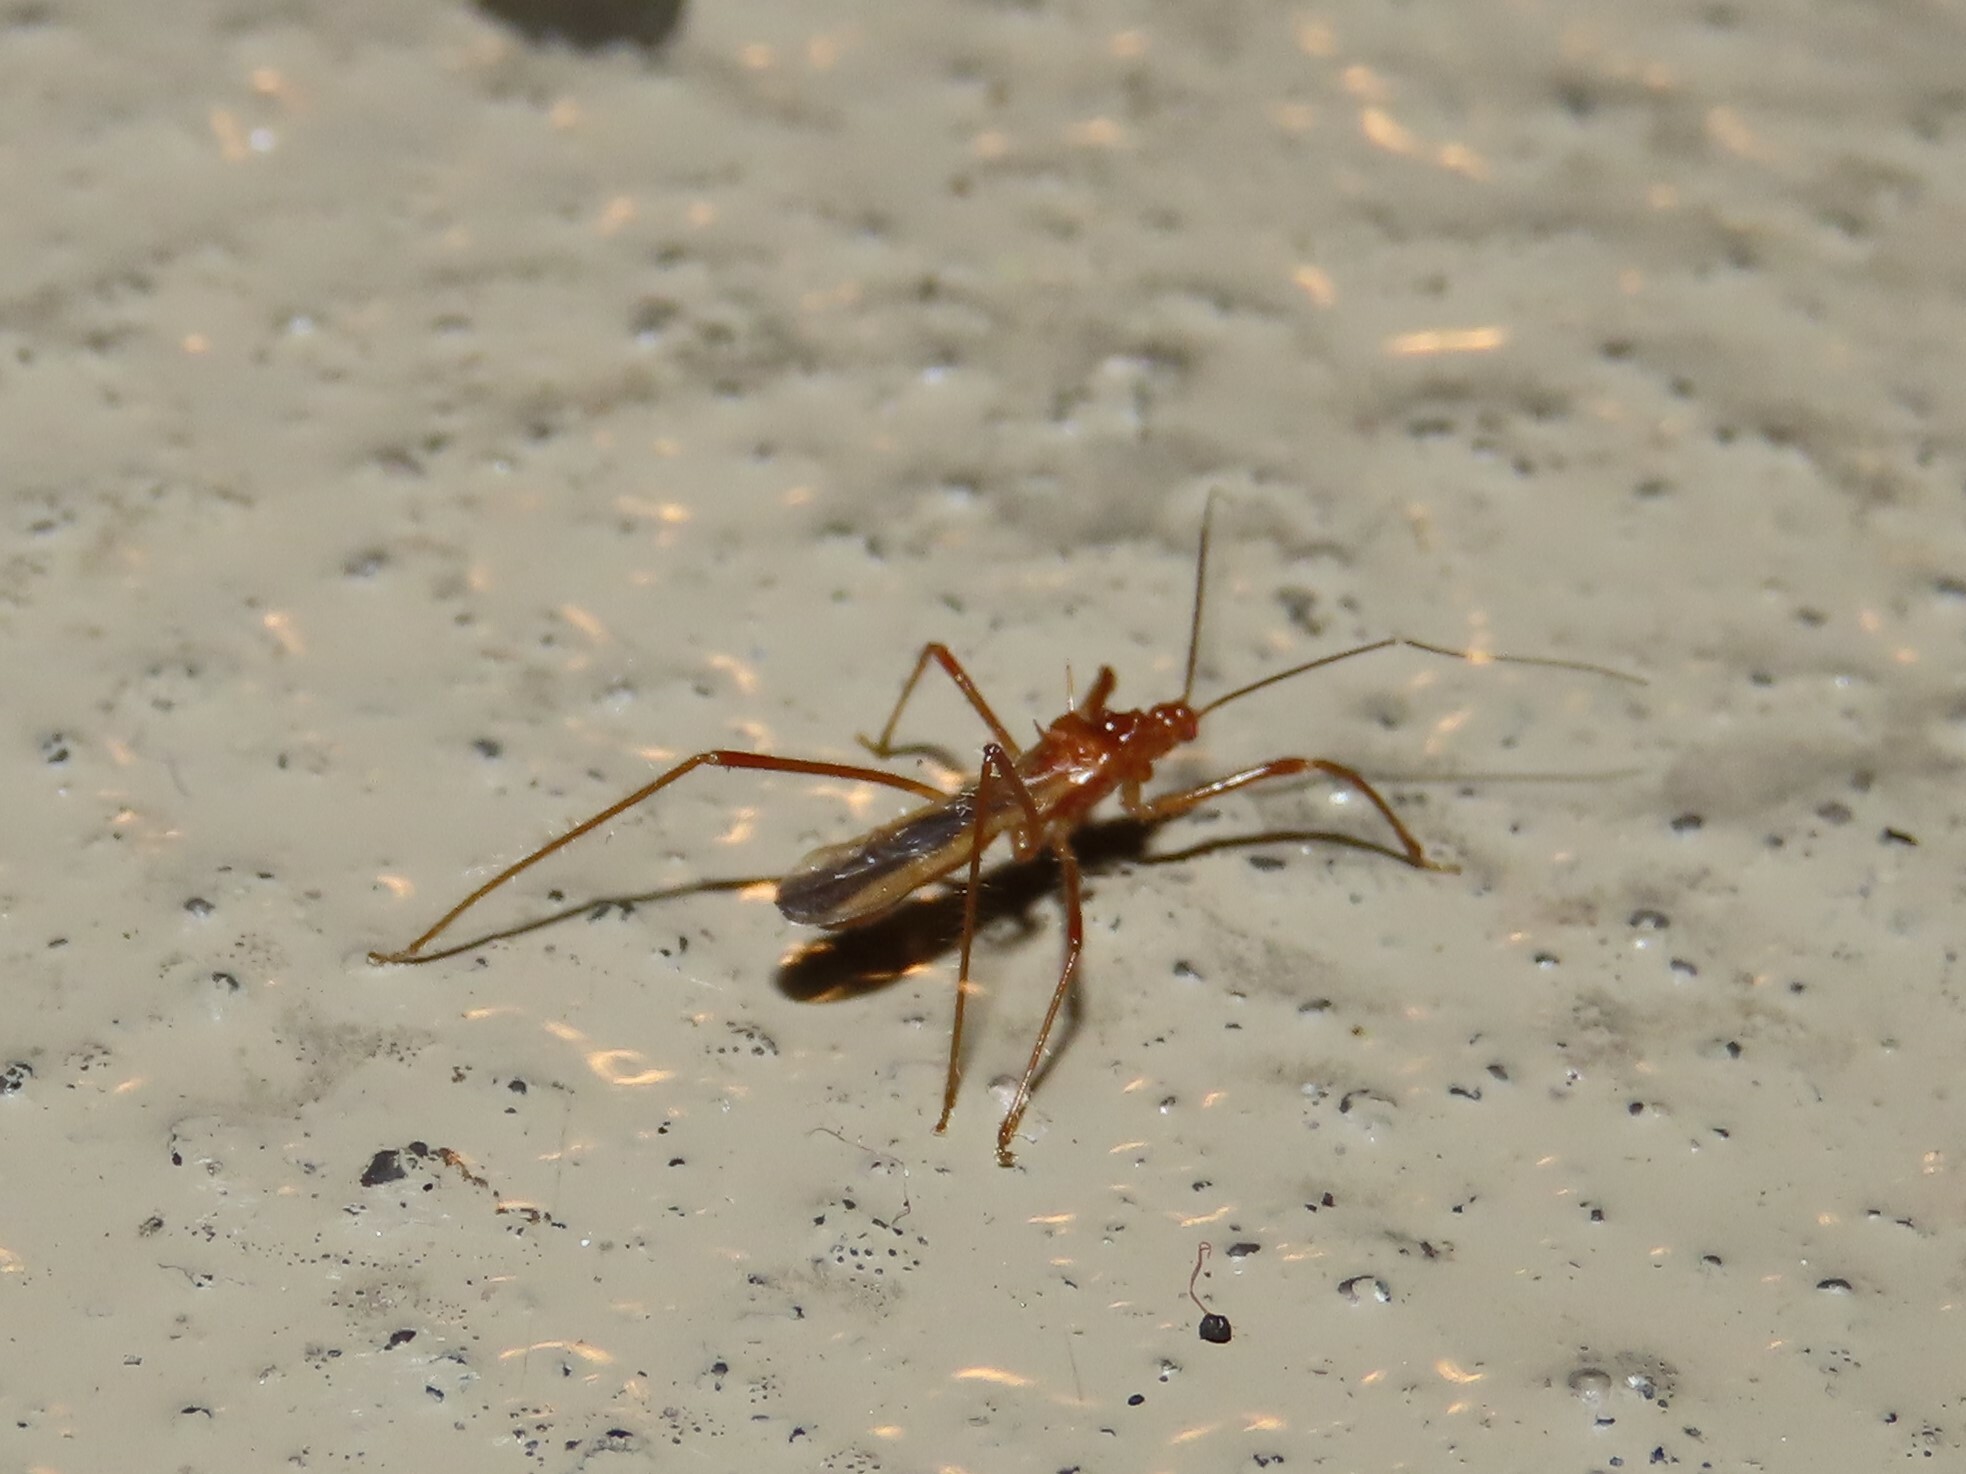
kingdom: Animalia
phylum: Arthropoda
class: Insecta
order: Hemiptera
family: Reduviidae
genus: Pseudosaica
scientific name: Pseudosaica florida
